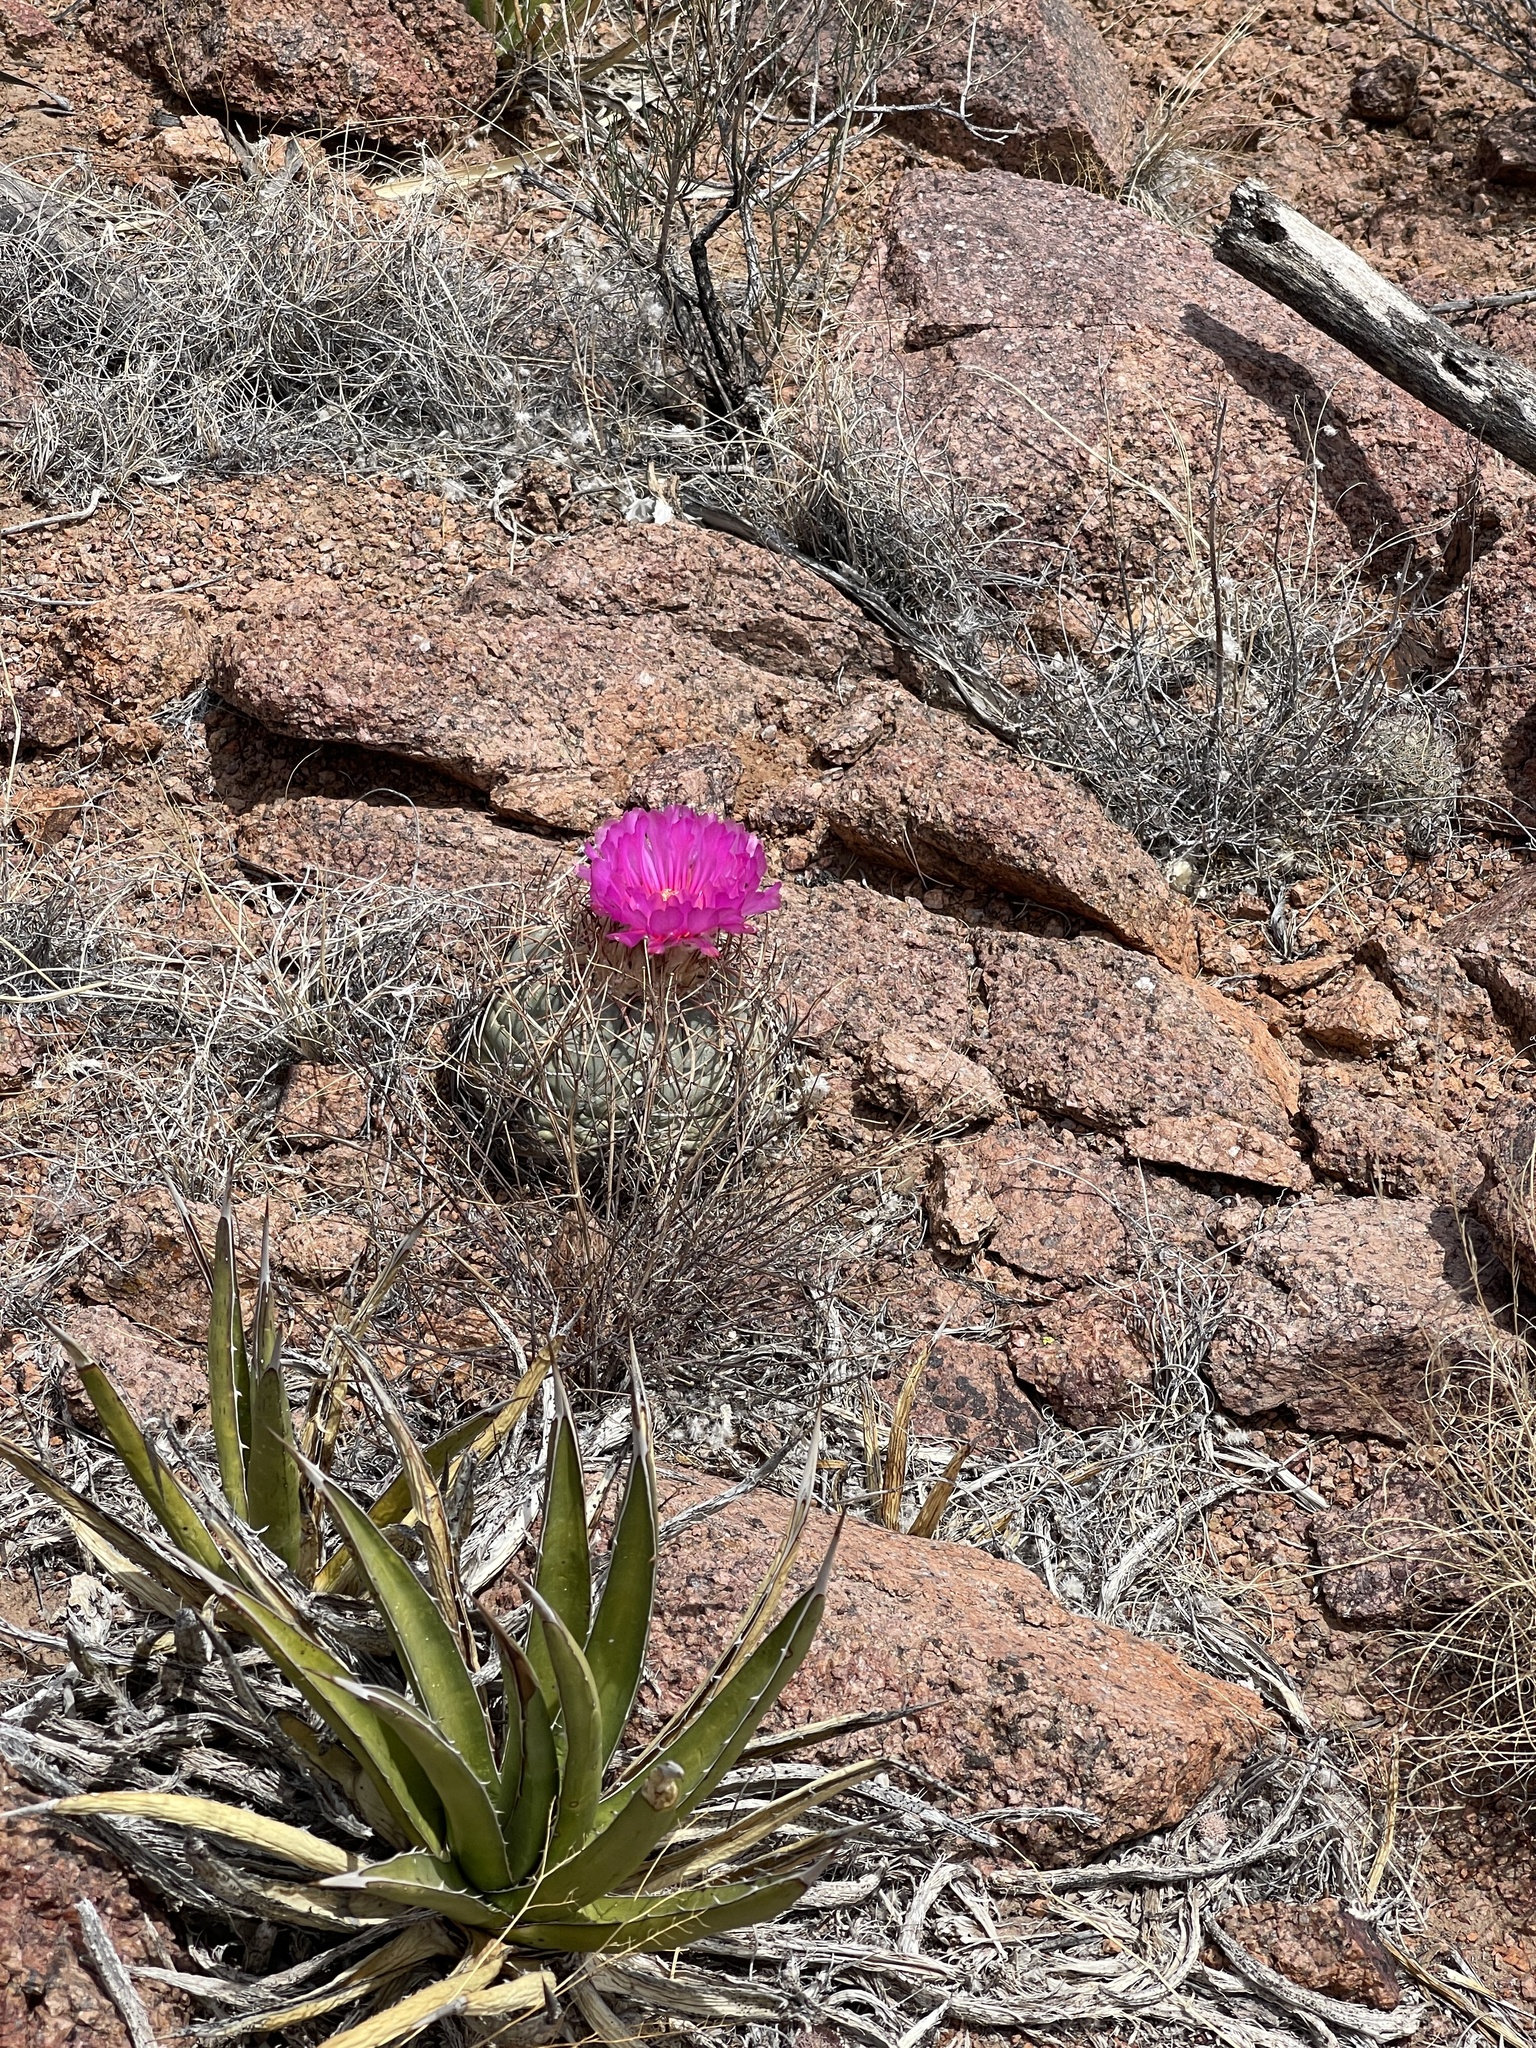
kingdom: Plantae
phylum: Tracheophyta
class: Magnoliopsida
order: Caryophyllales
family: Cactaceae
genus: Echinocactus
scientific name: Echinocactus horizonthalonius
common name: Devilshead
